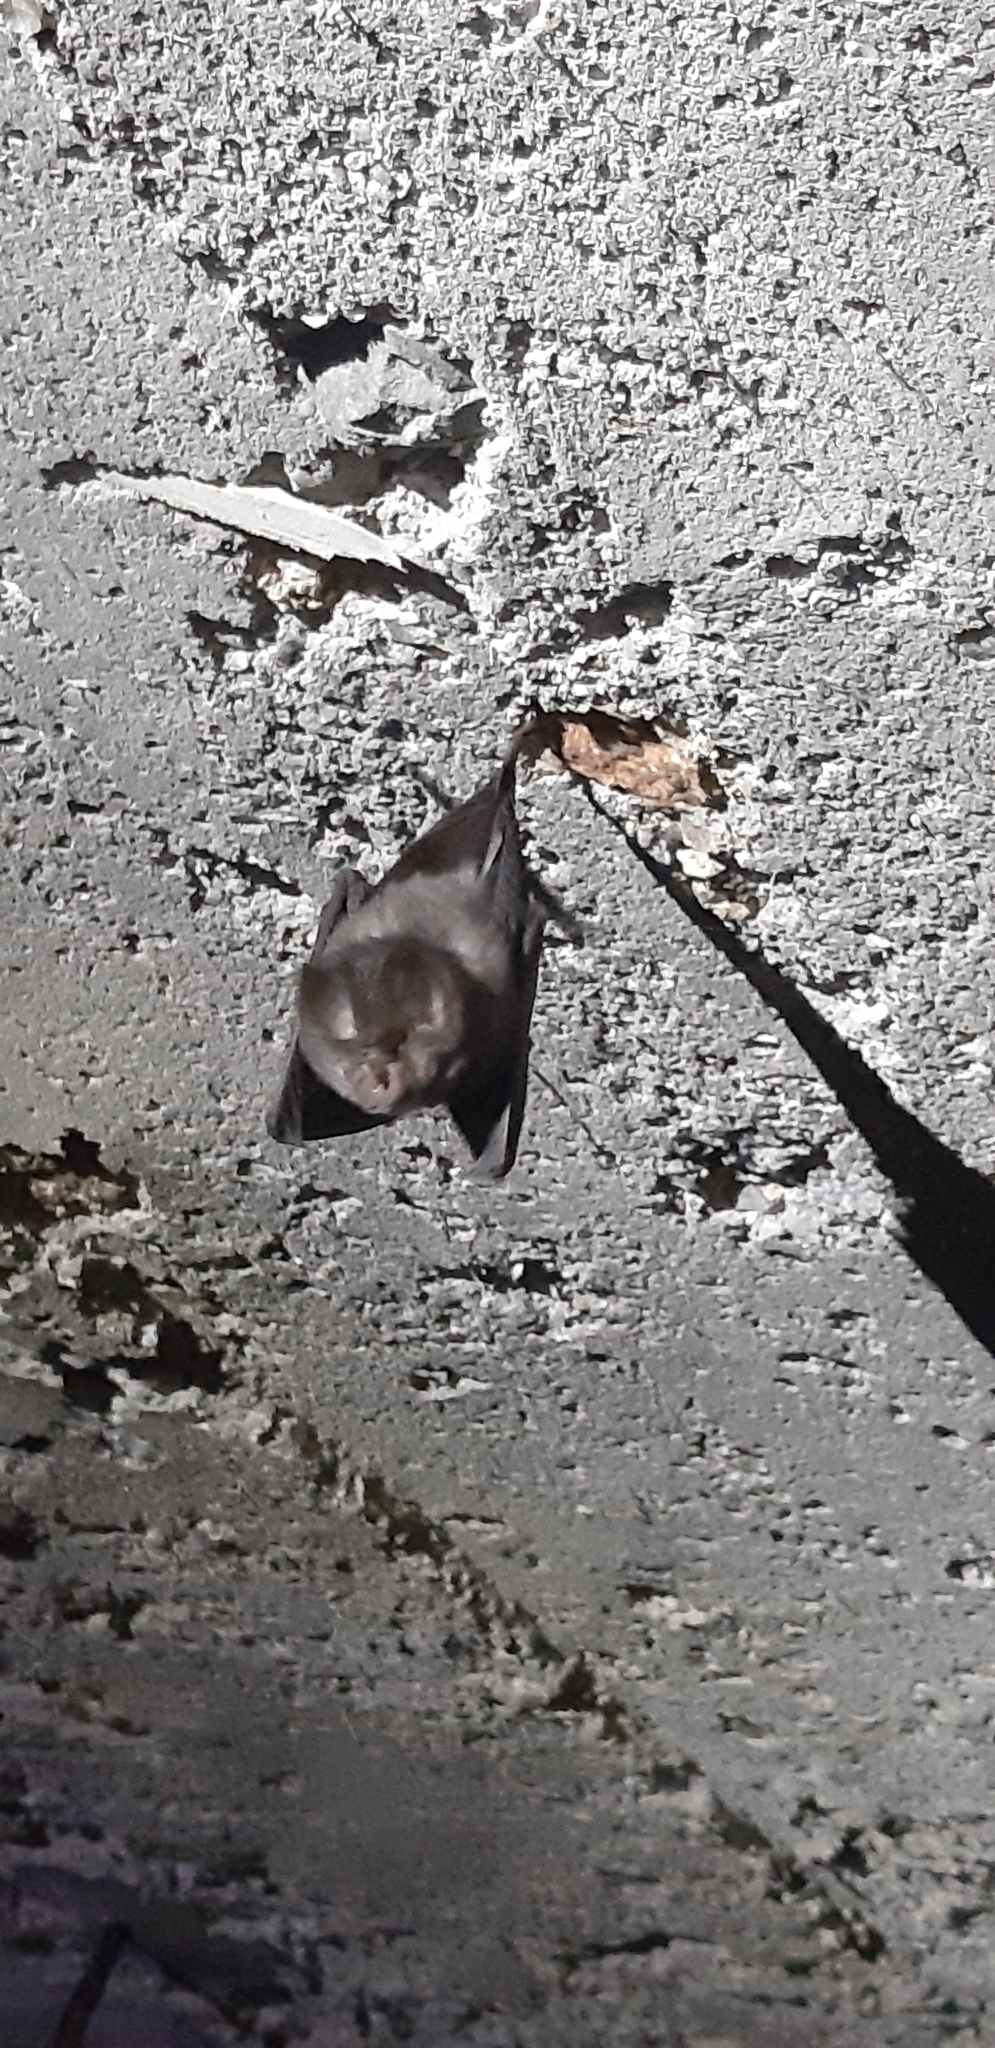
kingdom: Animalia
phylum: Chordata
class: Mammalia
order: Chiroptera
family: Rhinolophidae
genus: Rhinolophus
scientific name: Rhinolophus hipposideros
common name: Lesser horseshoe bat
